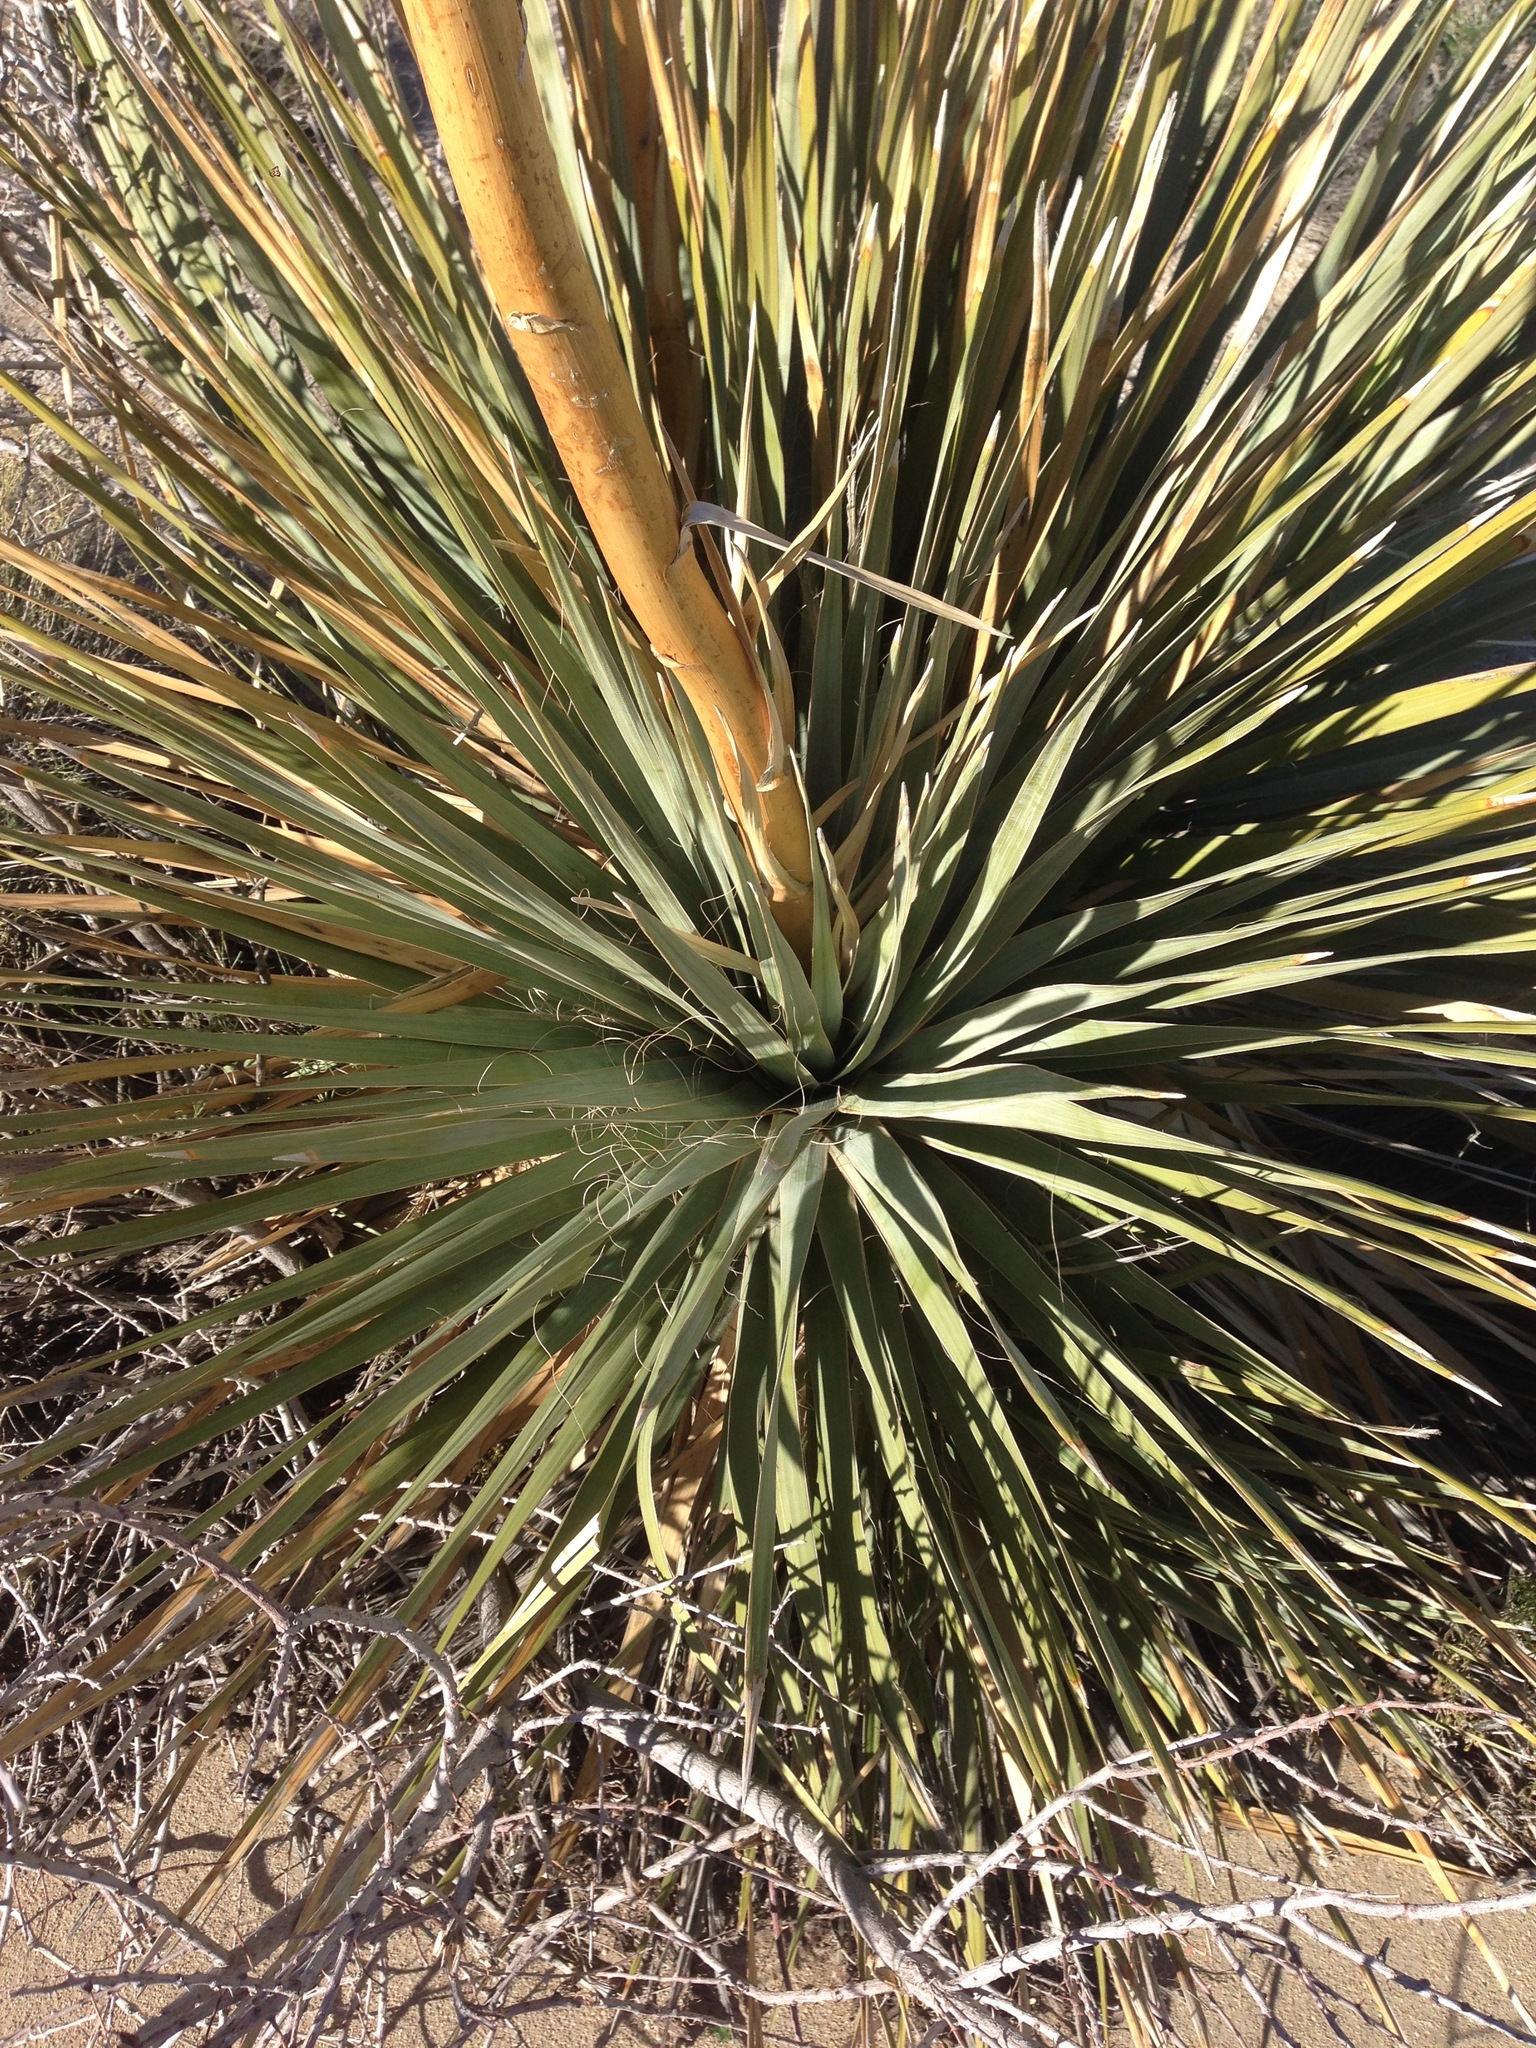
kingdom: Plantae
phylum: Tracheophyta
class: Liliopsida
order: Asparagales
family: Asparagaceae
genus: Nolina
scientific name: Nolina bigelovii
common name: Bigelow bear-grass
